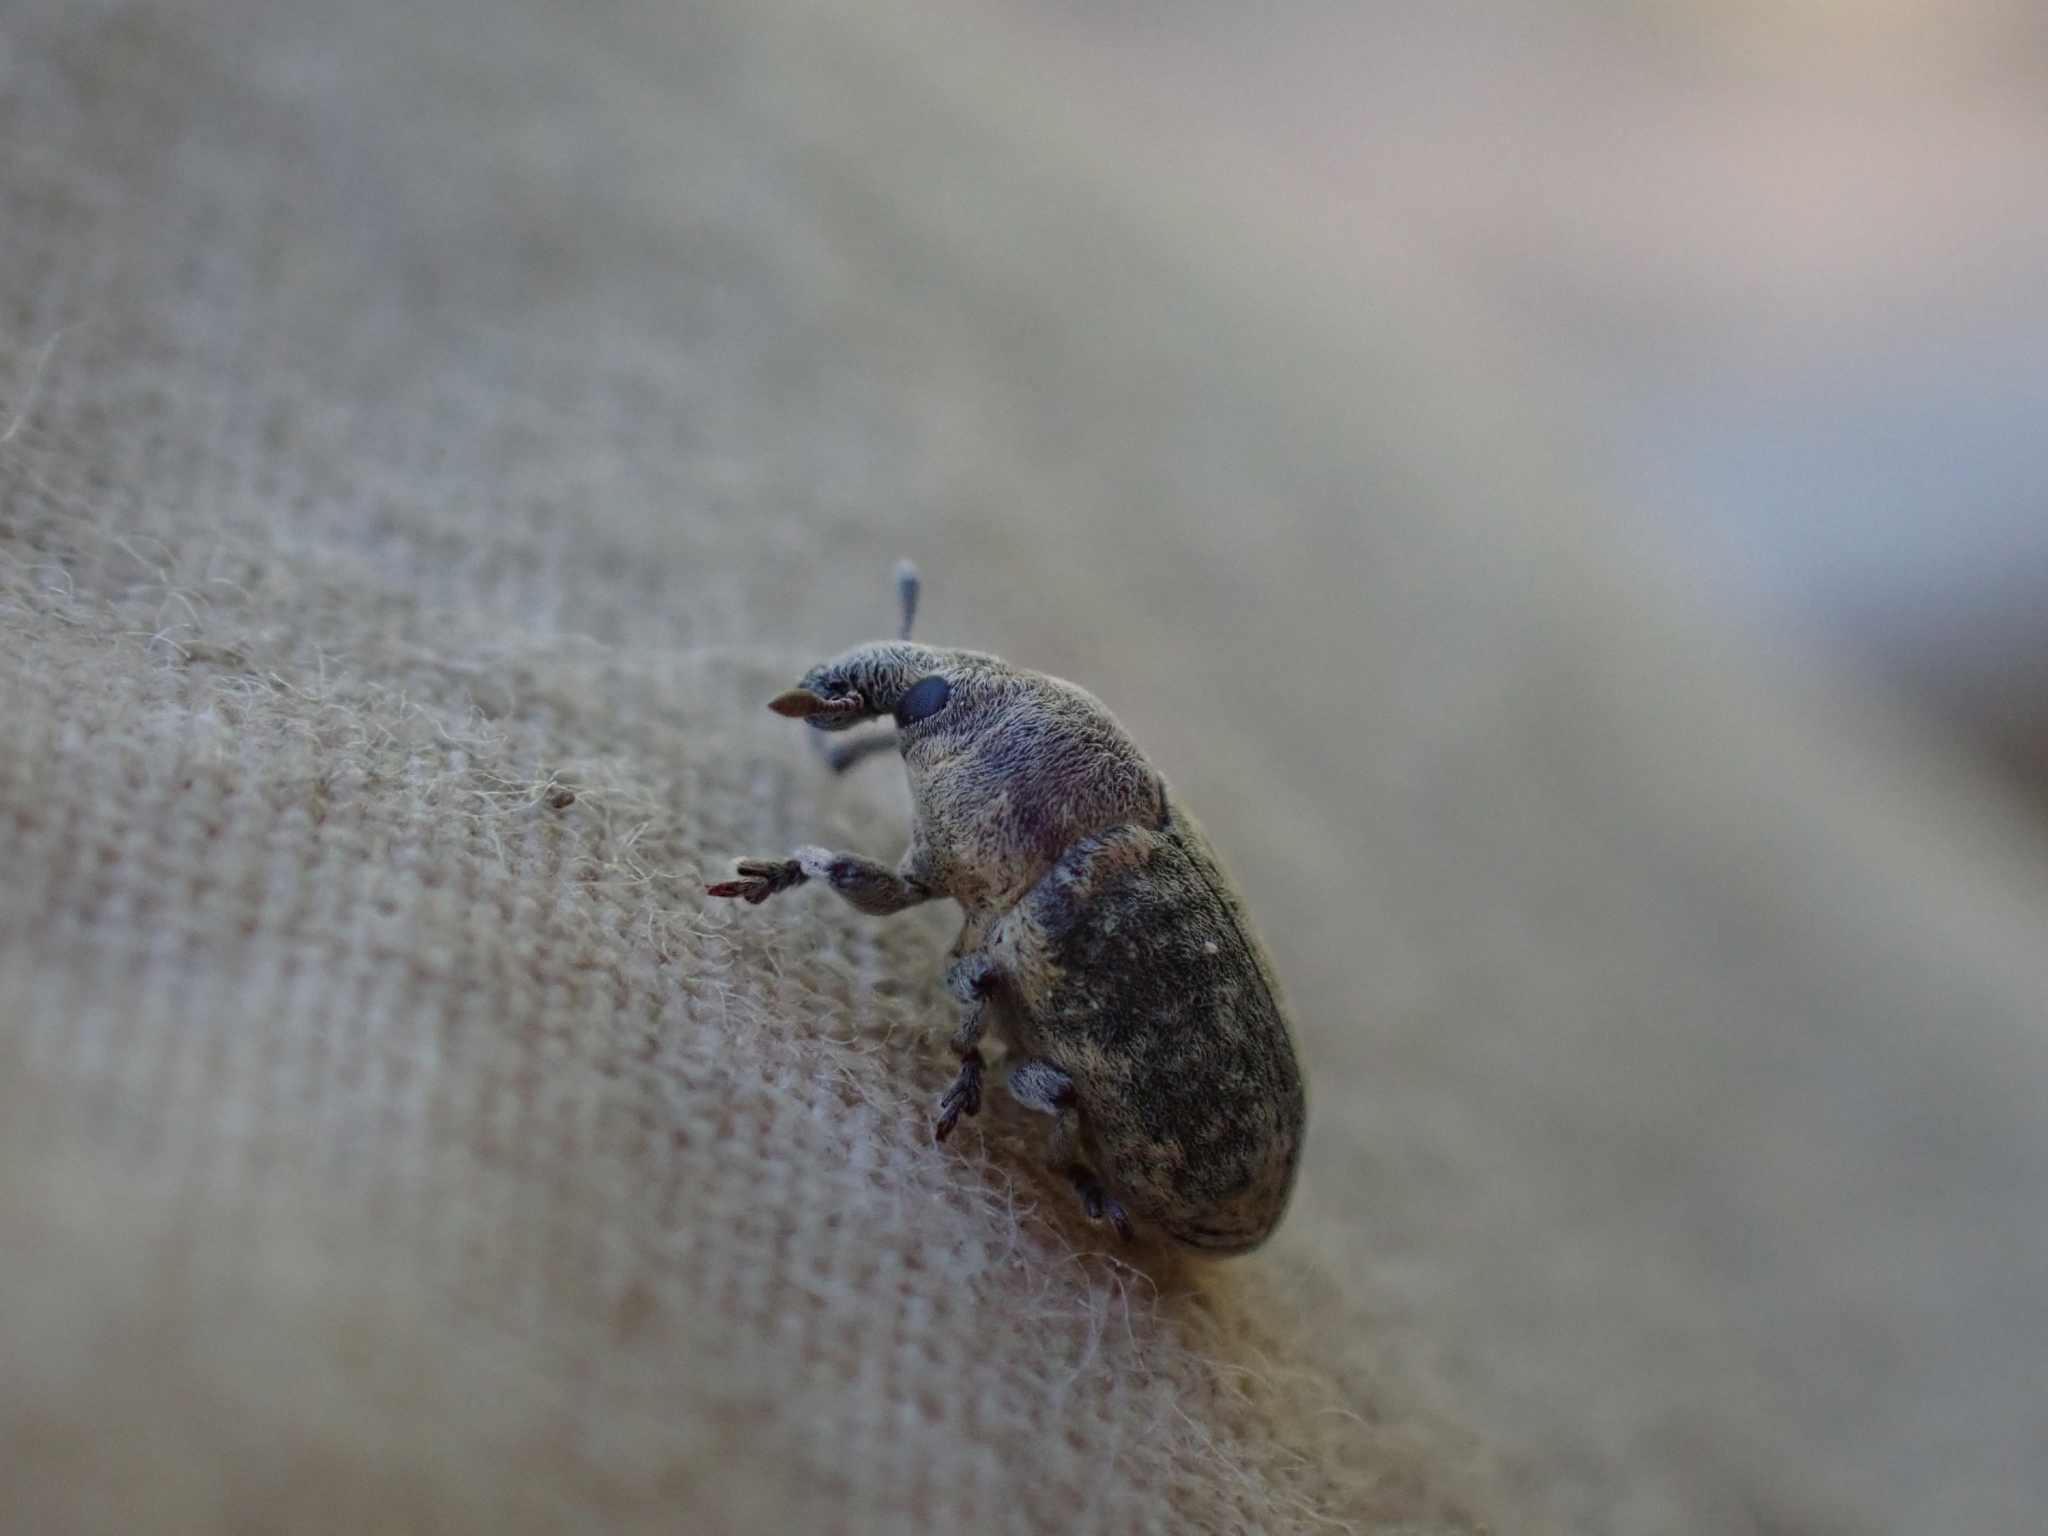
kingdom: Animalia
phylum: Arthropoda
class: Insecta
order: Coleoptera
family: Curculionidae
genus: Larinus
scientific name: Larinus minutus
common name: Weevil
